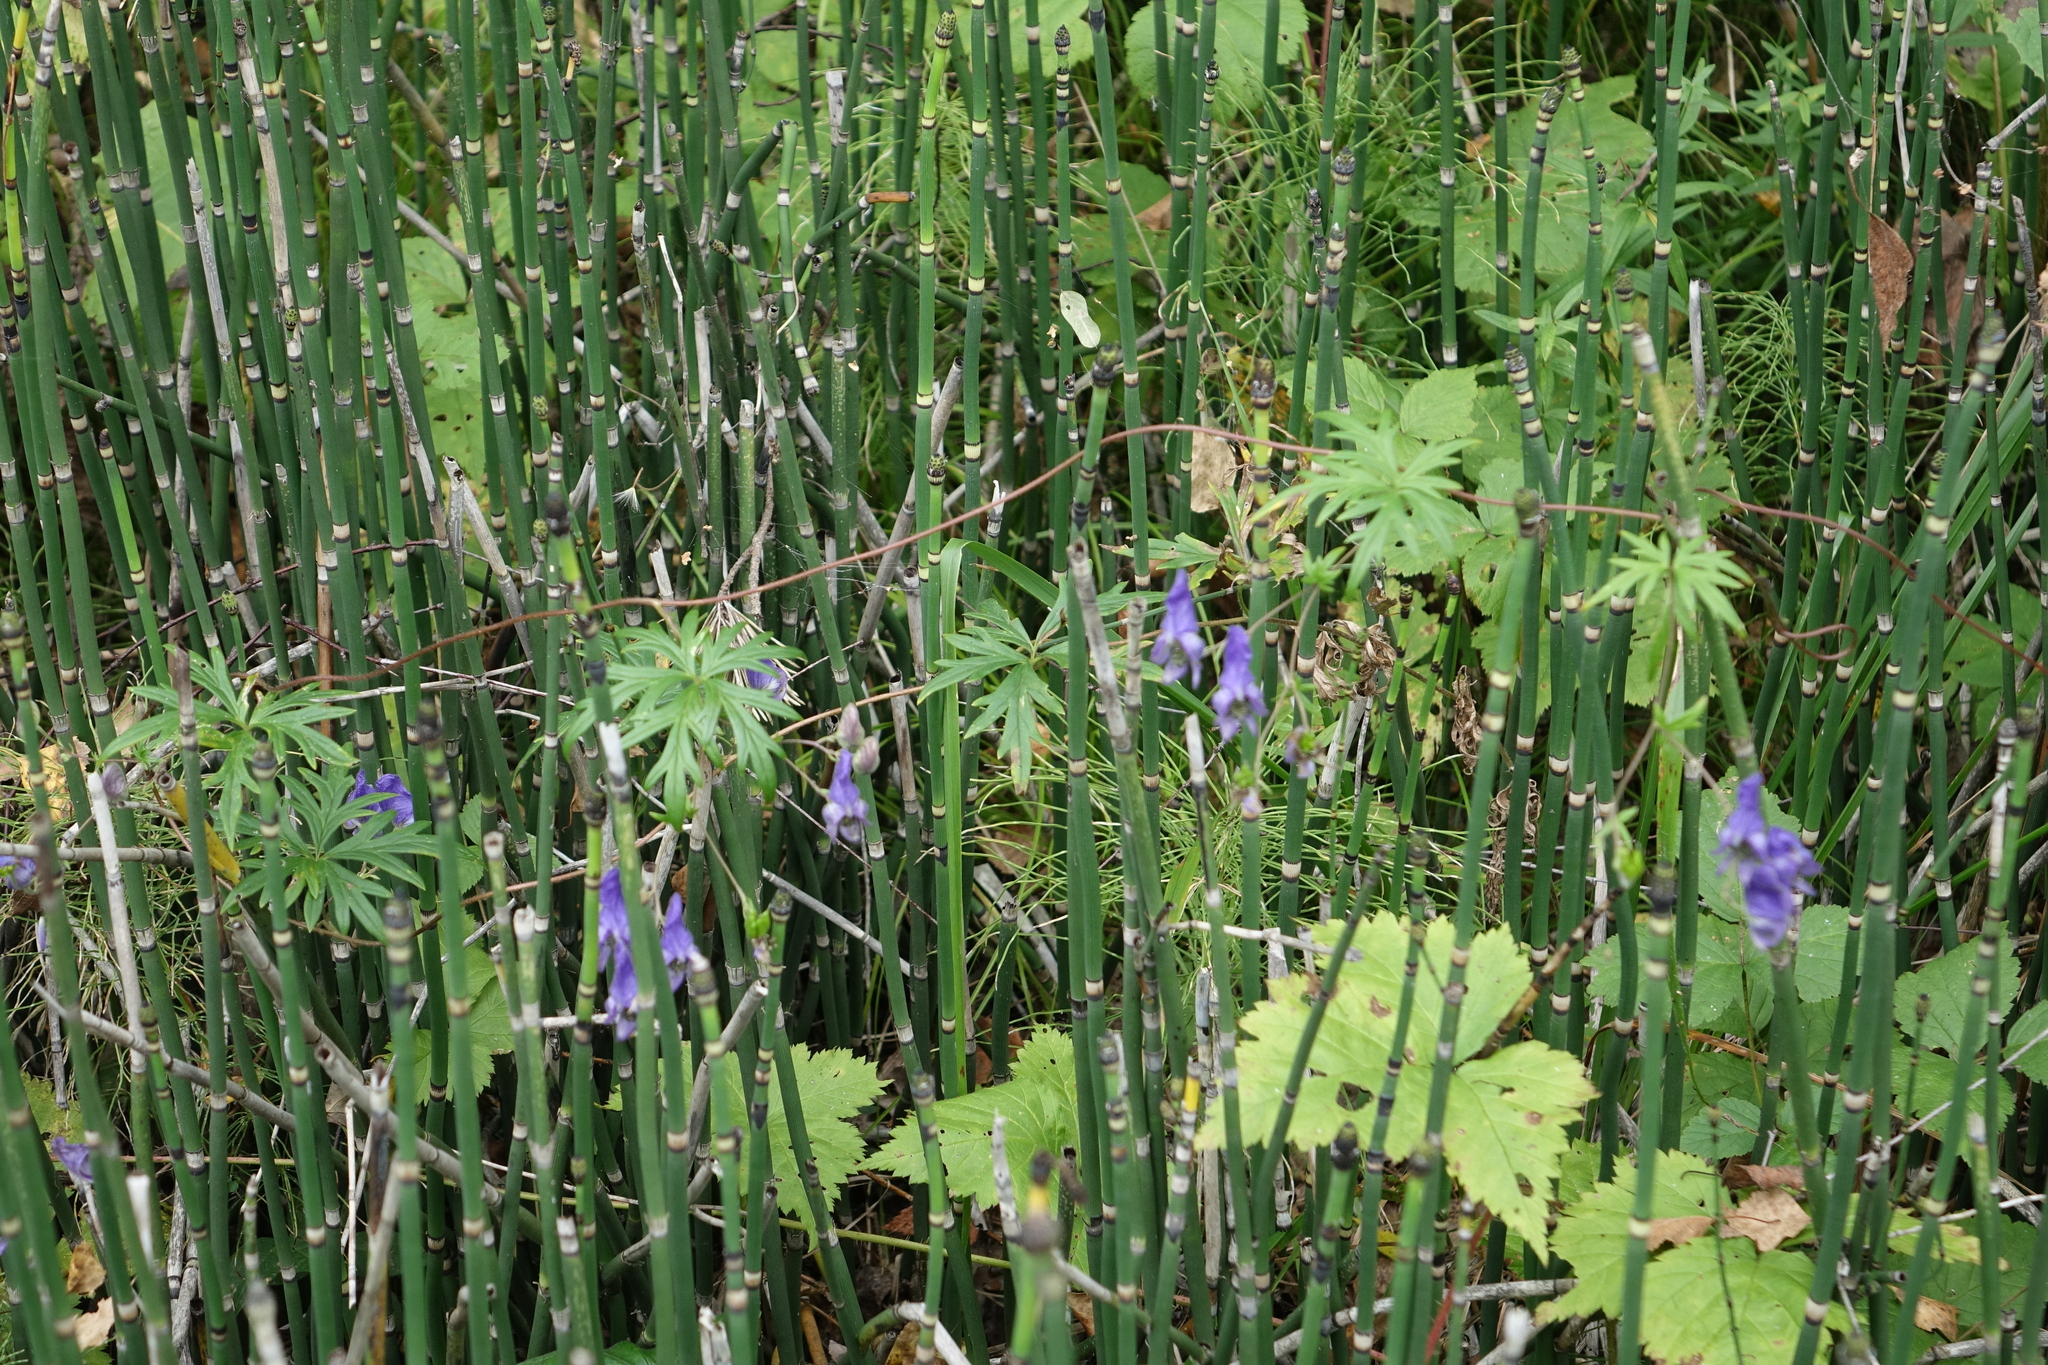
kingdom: Plantae
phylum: Tracheophyta
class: Polypodiopsida
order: Equisetales
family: Equisetaceae
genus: Equisetum
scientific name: Equisetum hyemale
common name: Rough horsetail
